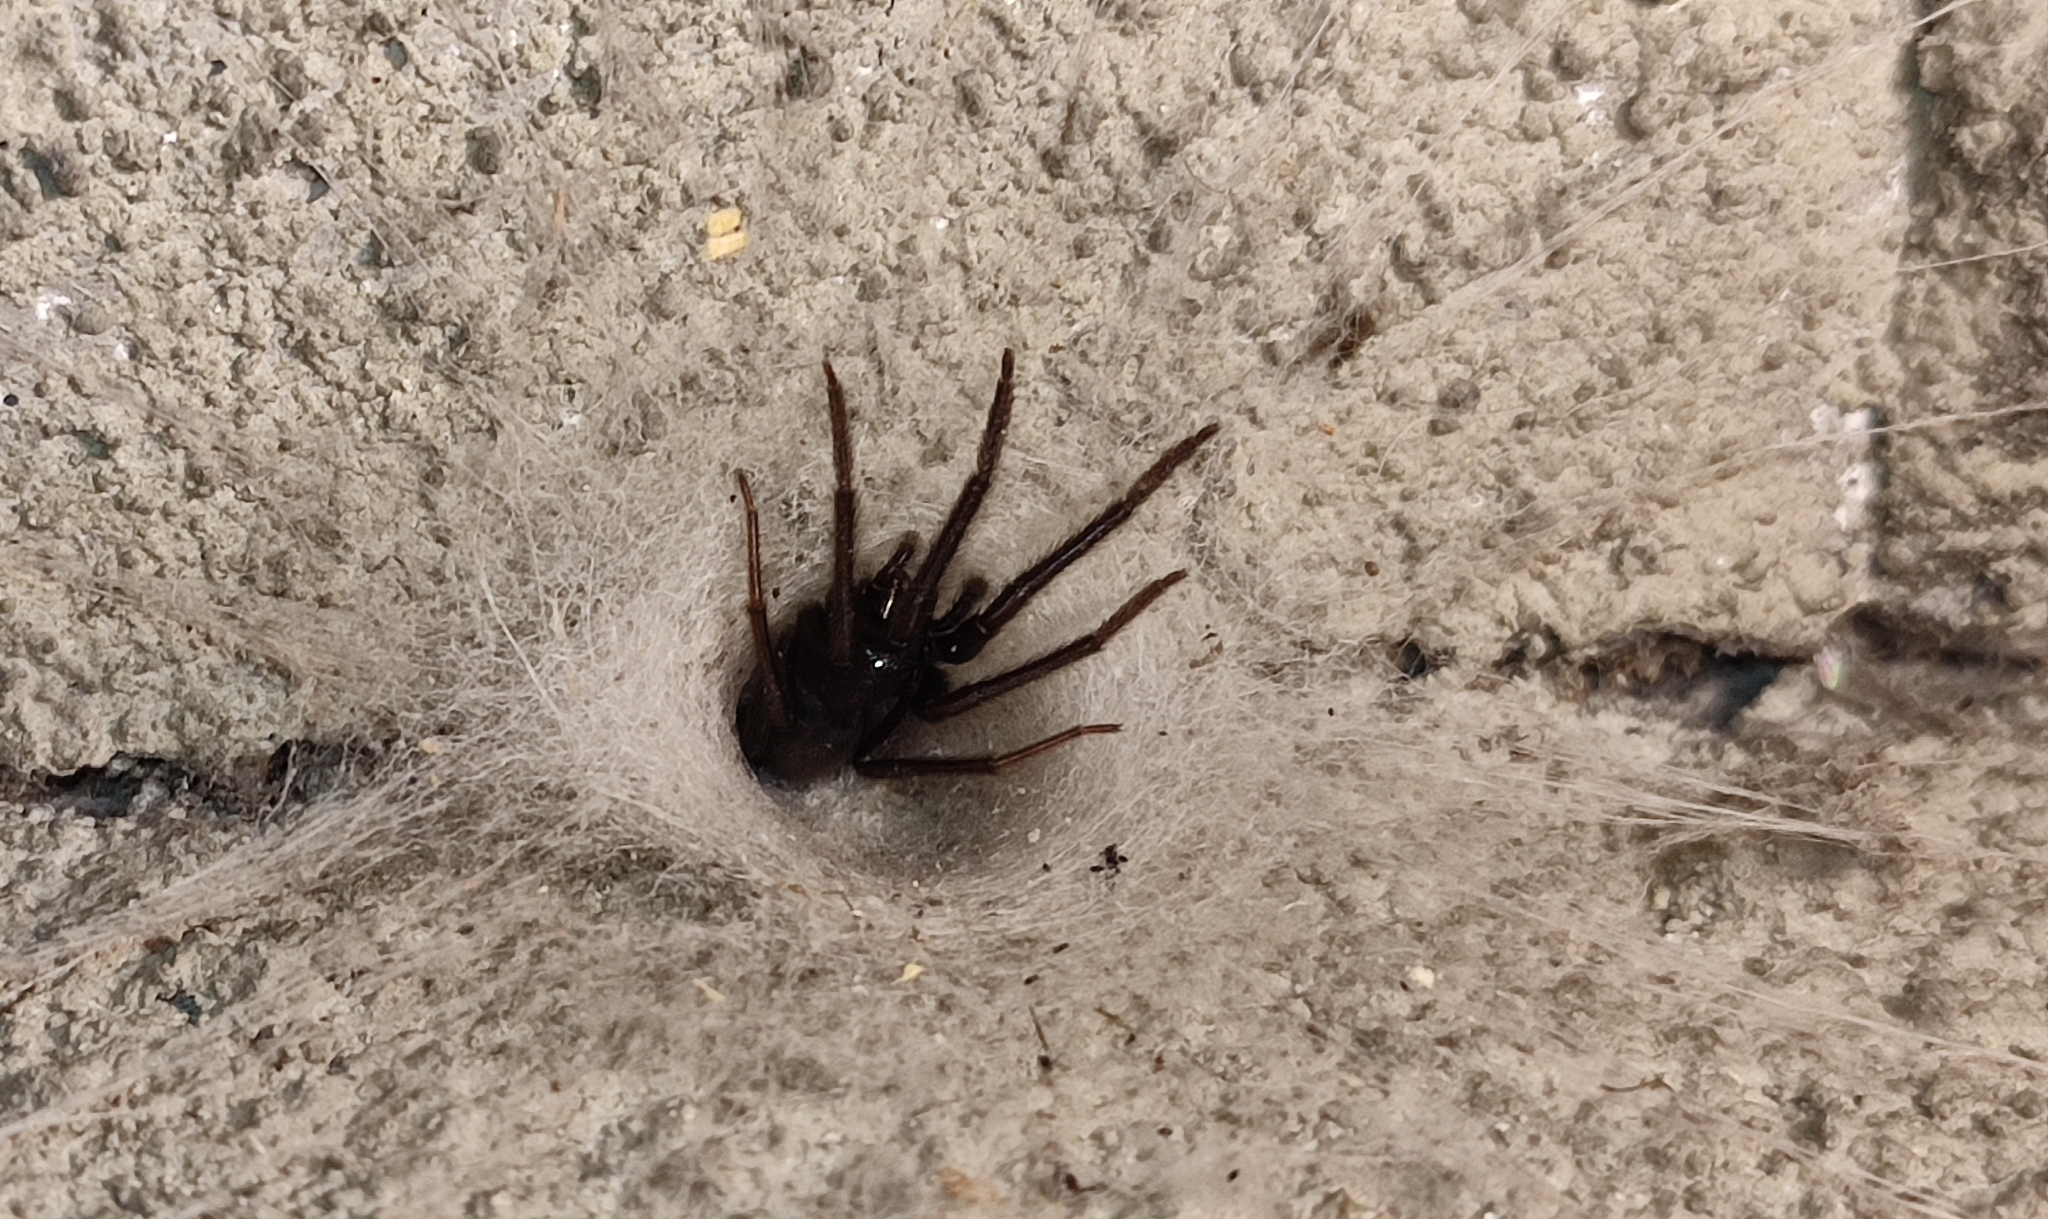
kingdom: Animalia
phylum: Arthropoda
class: Arachnida
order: Araneae
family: Segestriidae
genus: Segestria
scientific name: Segestria florentina
